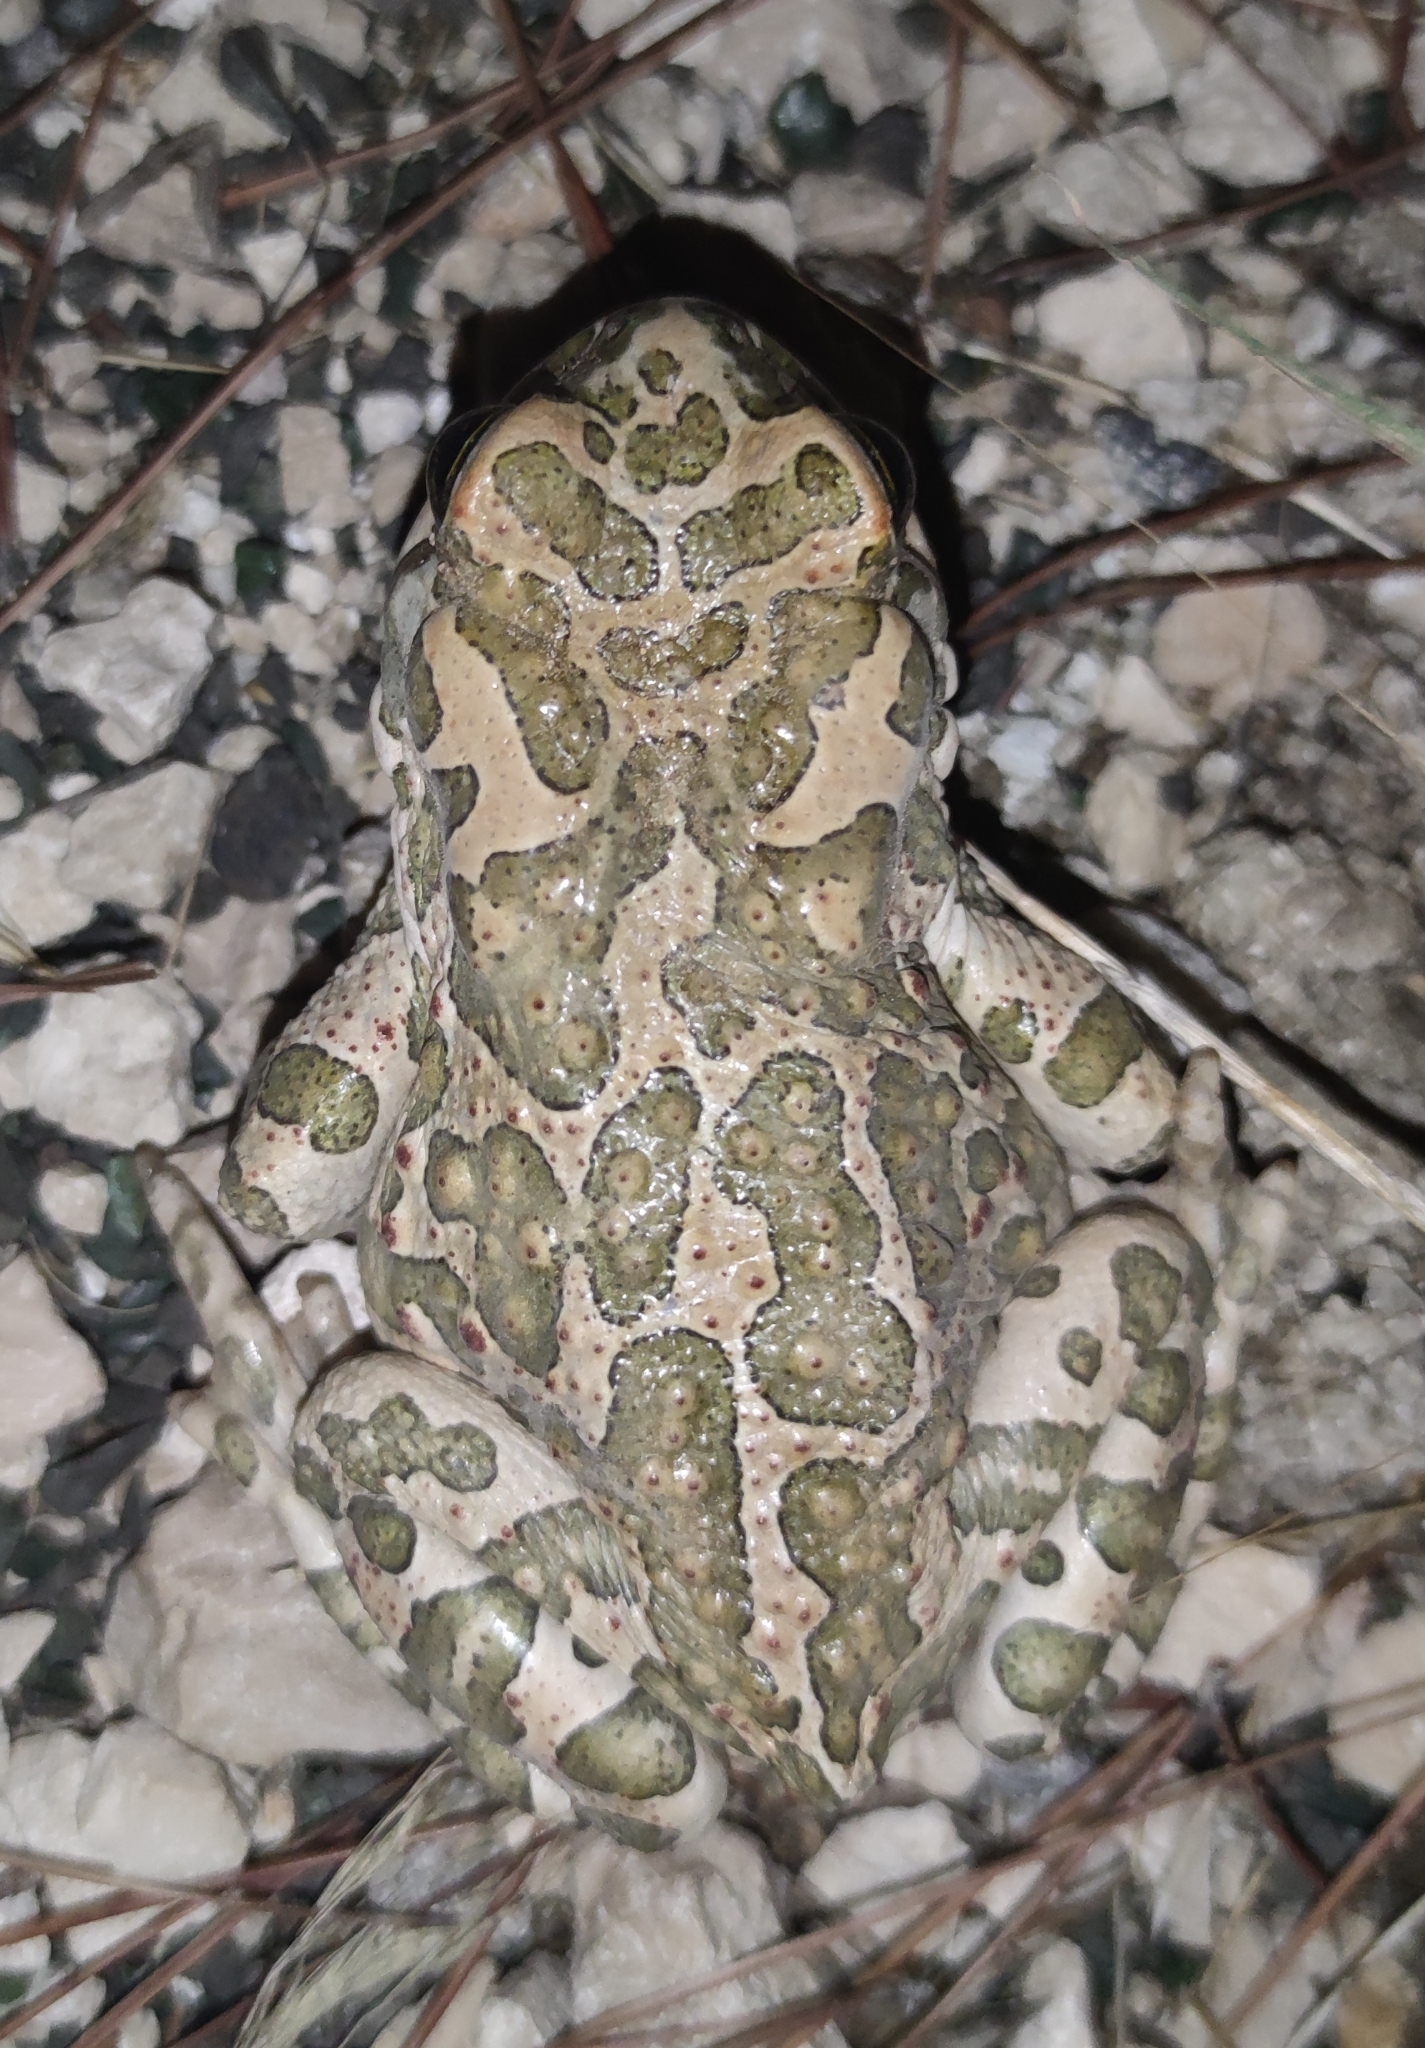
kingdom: Animalia
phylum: Chordata
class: Amphibia
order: Anura
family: Bufonidae
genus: Bufotes
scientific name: Bufotes viridis
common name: European green toad
